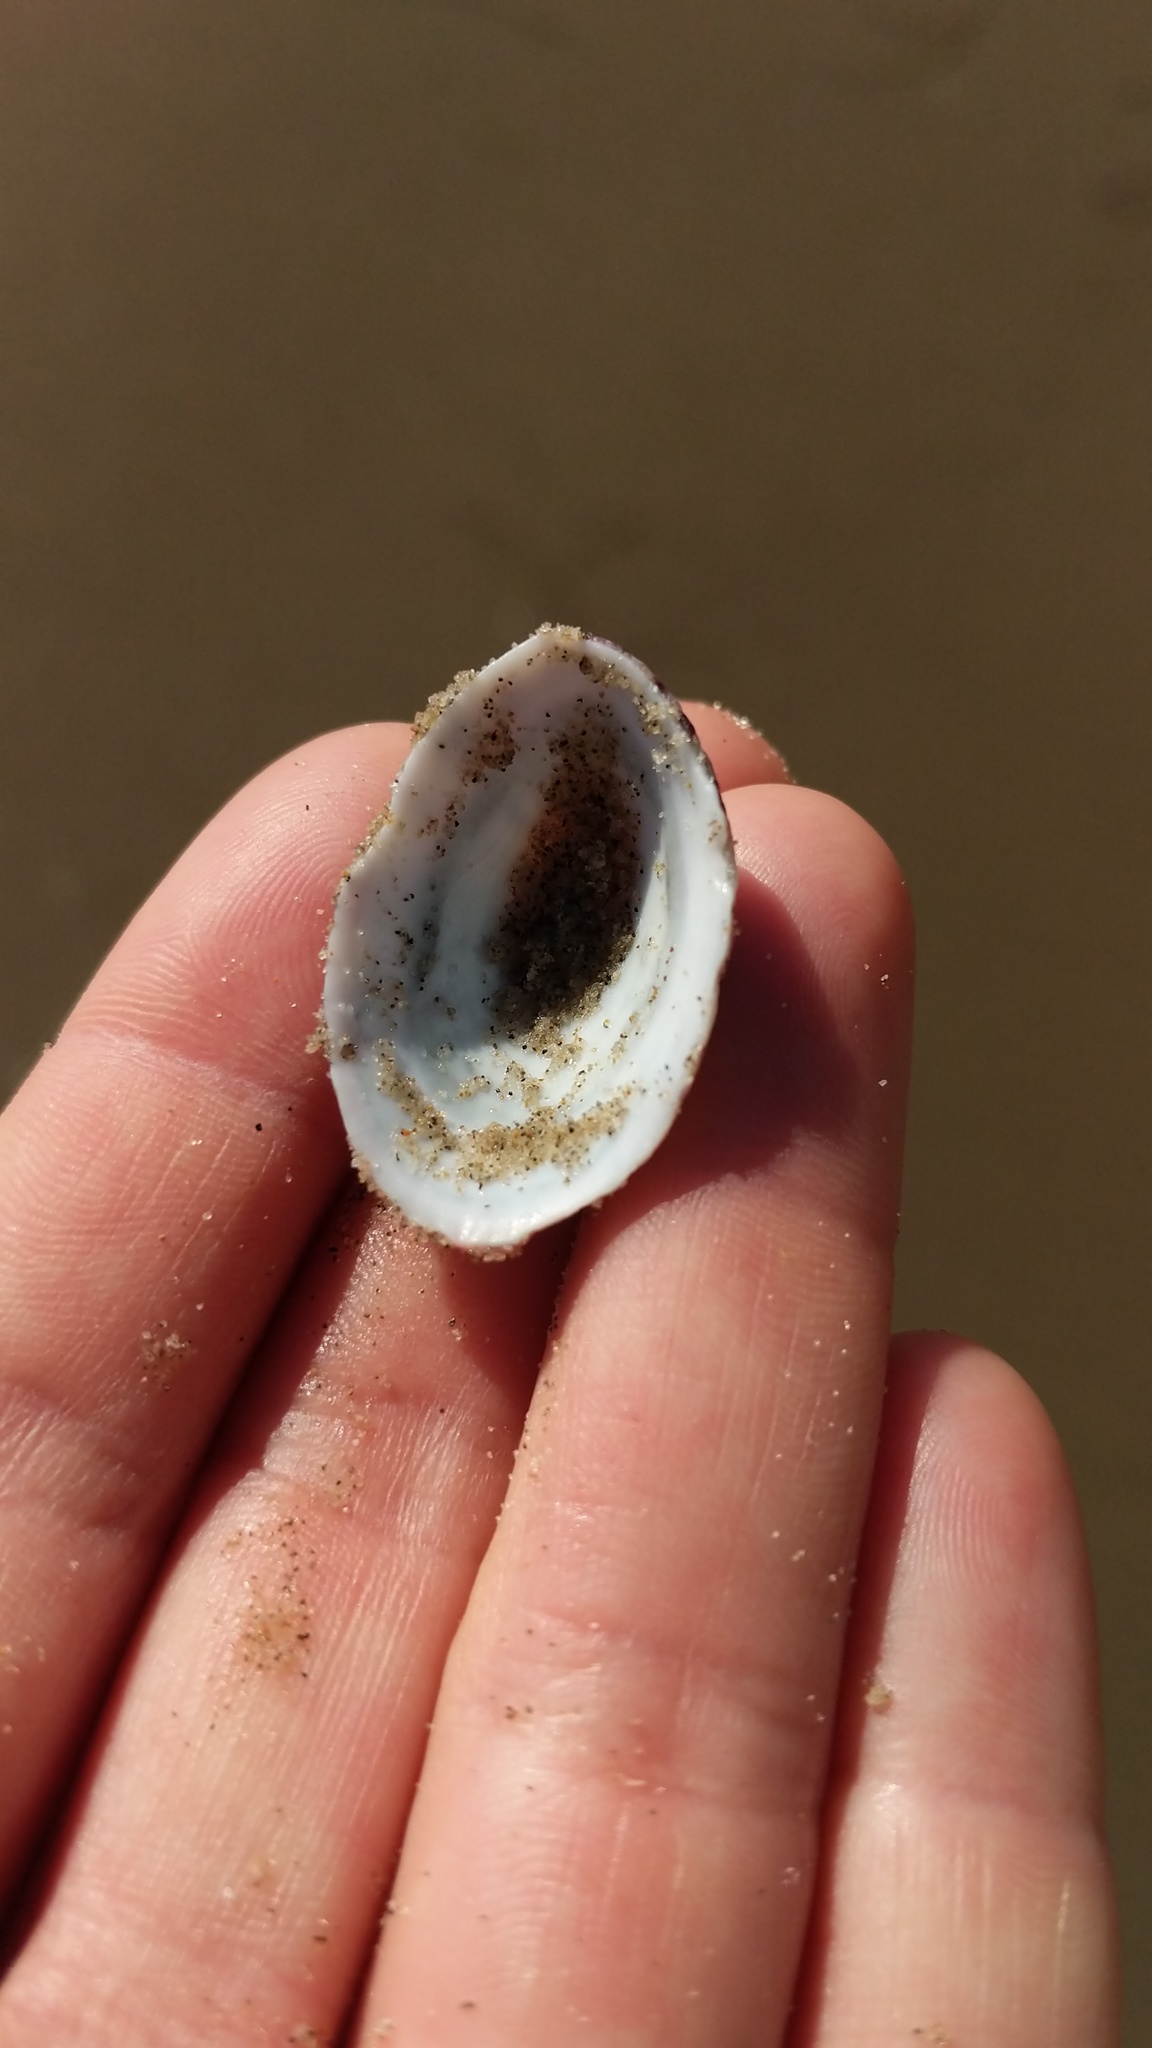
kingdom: Animalia
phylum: Mollusca
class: Gastropoda
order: Lepetellida
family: Fissurellidae
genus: Fissurella
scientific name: Fissurella volcano
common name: Volcano keyhole limpet
